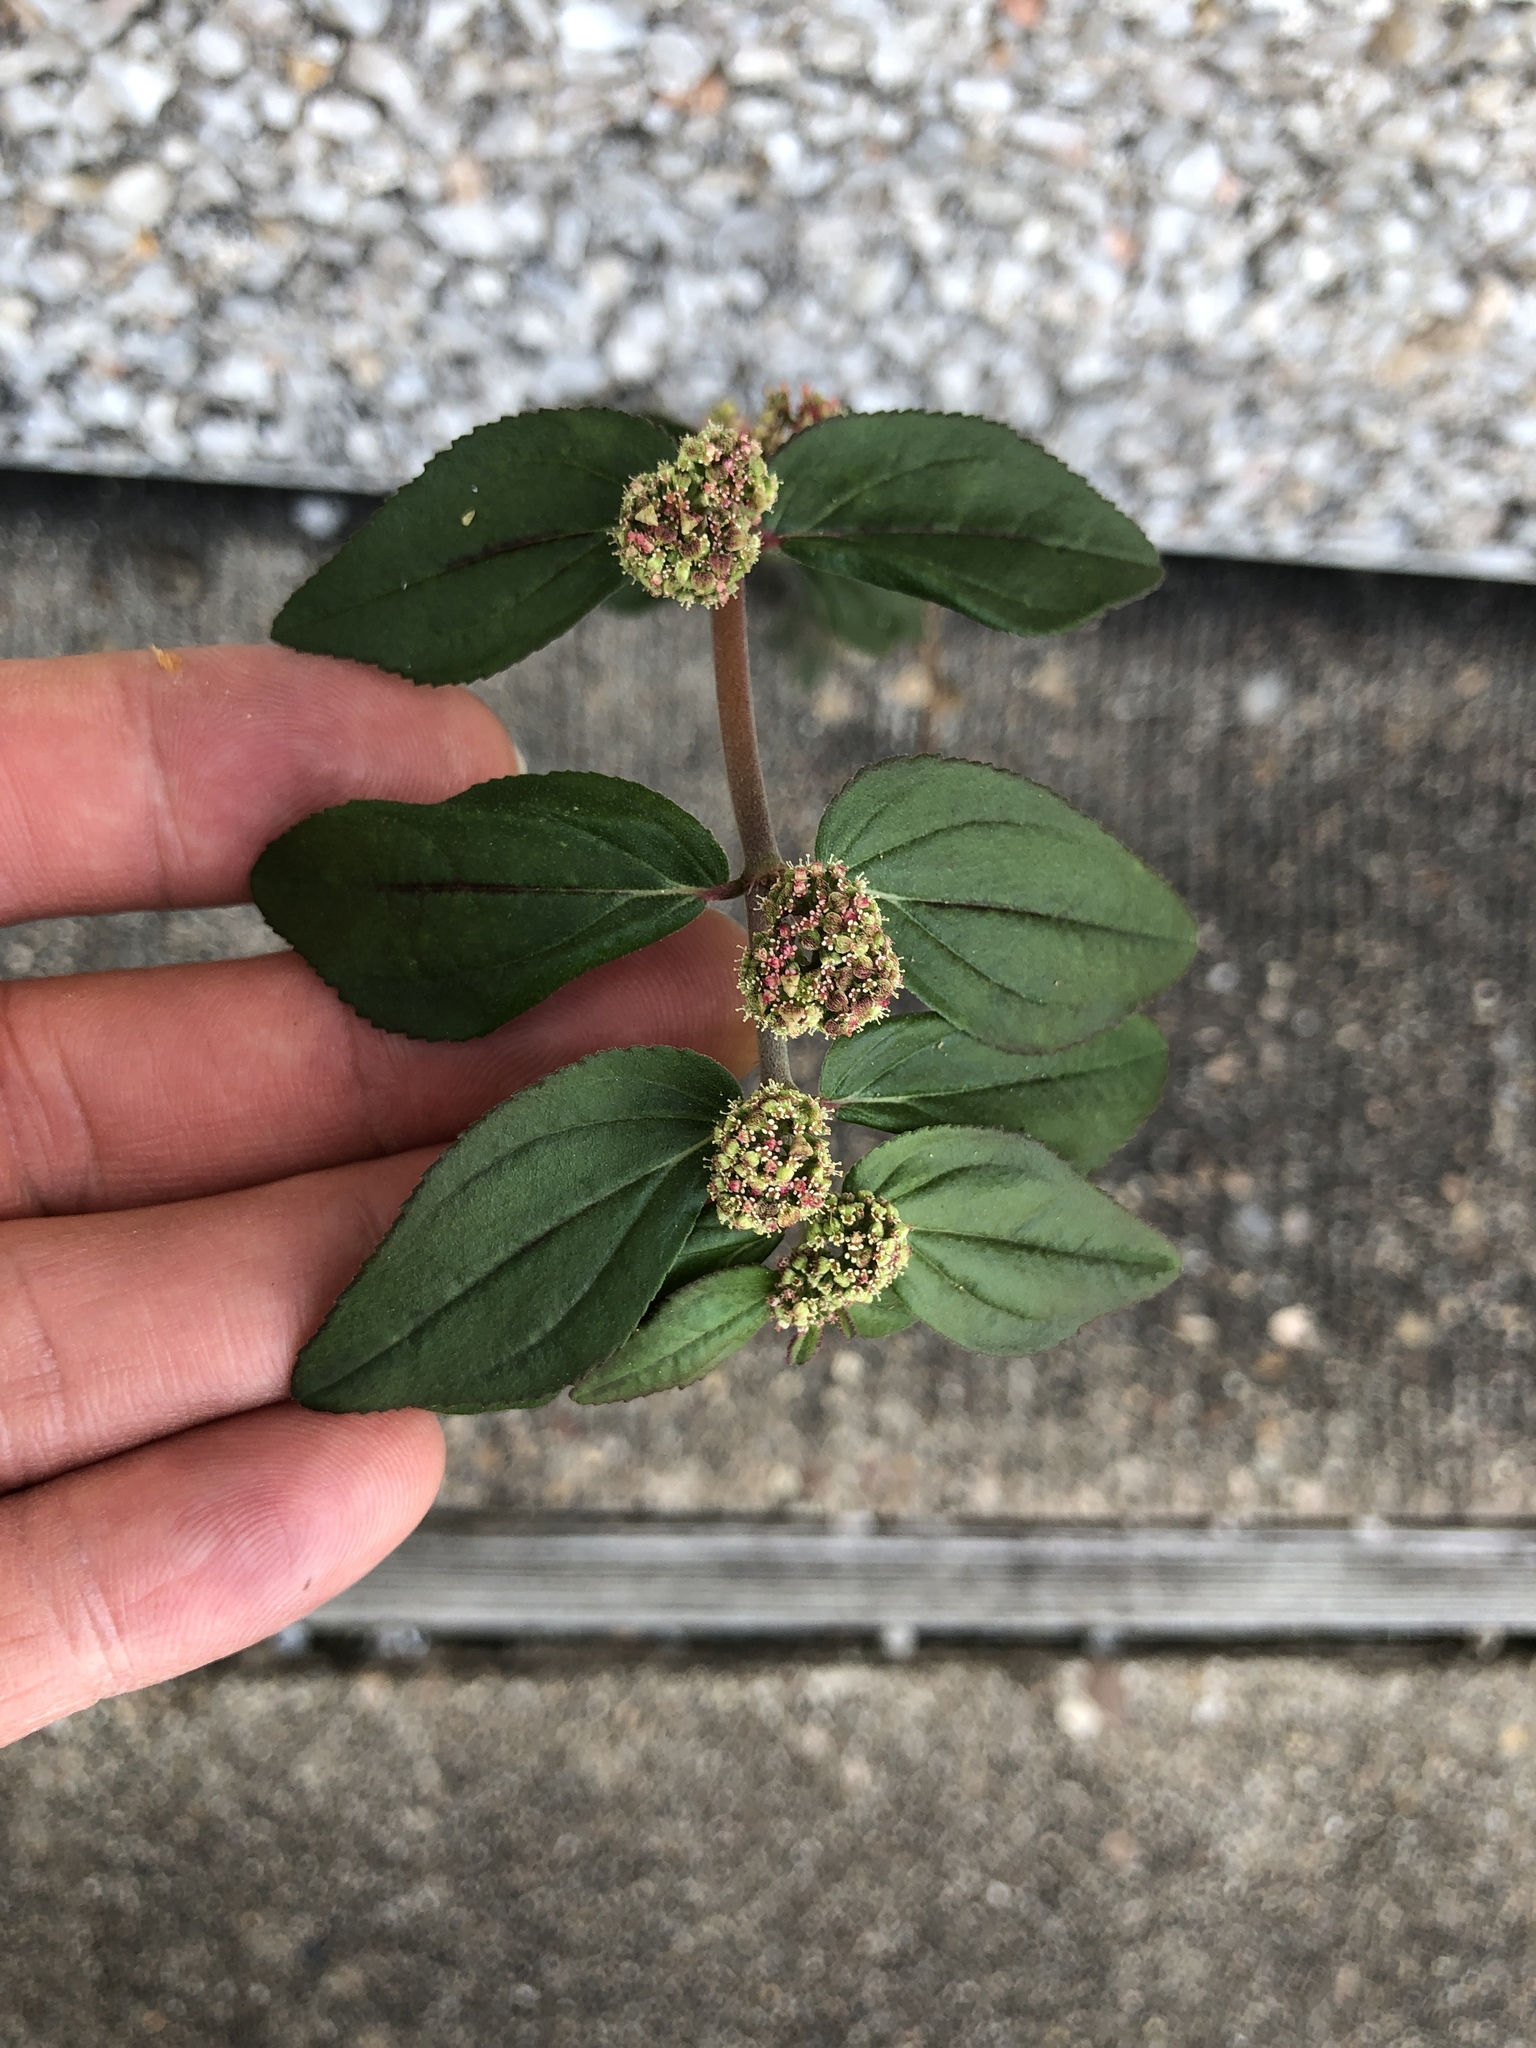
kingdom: Plantae
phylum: Tracheophyta
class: Magnoliopsida
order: Malpighiales
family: Euphorbiaceae
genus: Euphorbia
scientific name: Euphorbia hirta
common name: Pillpod sandmat
